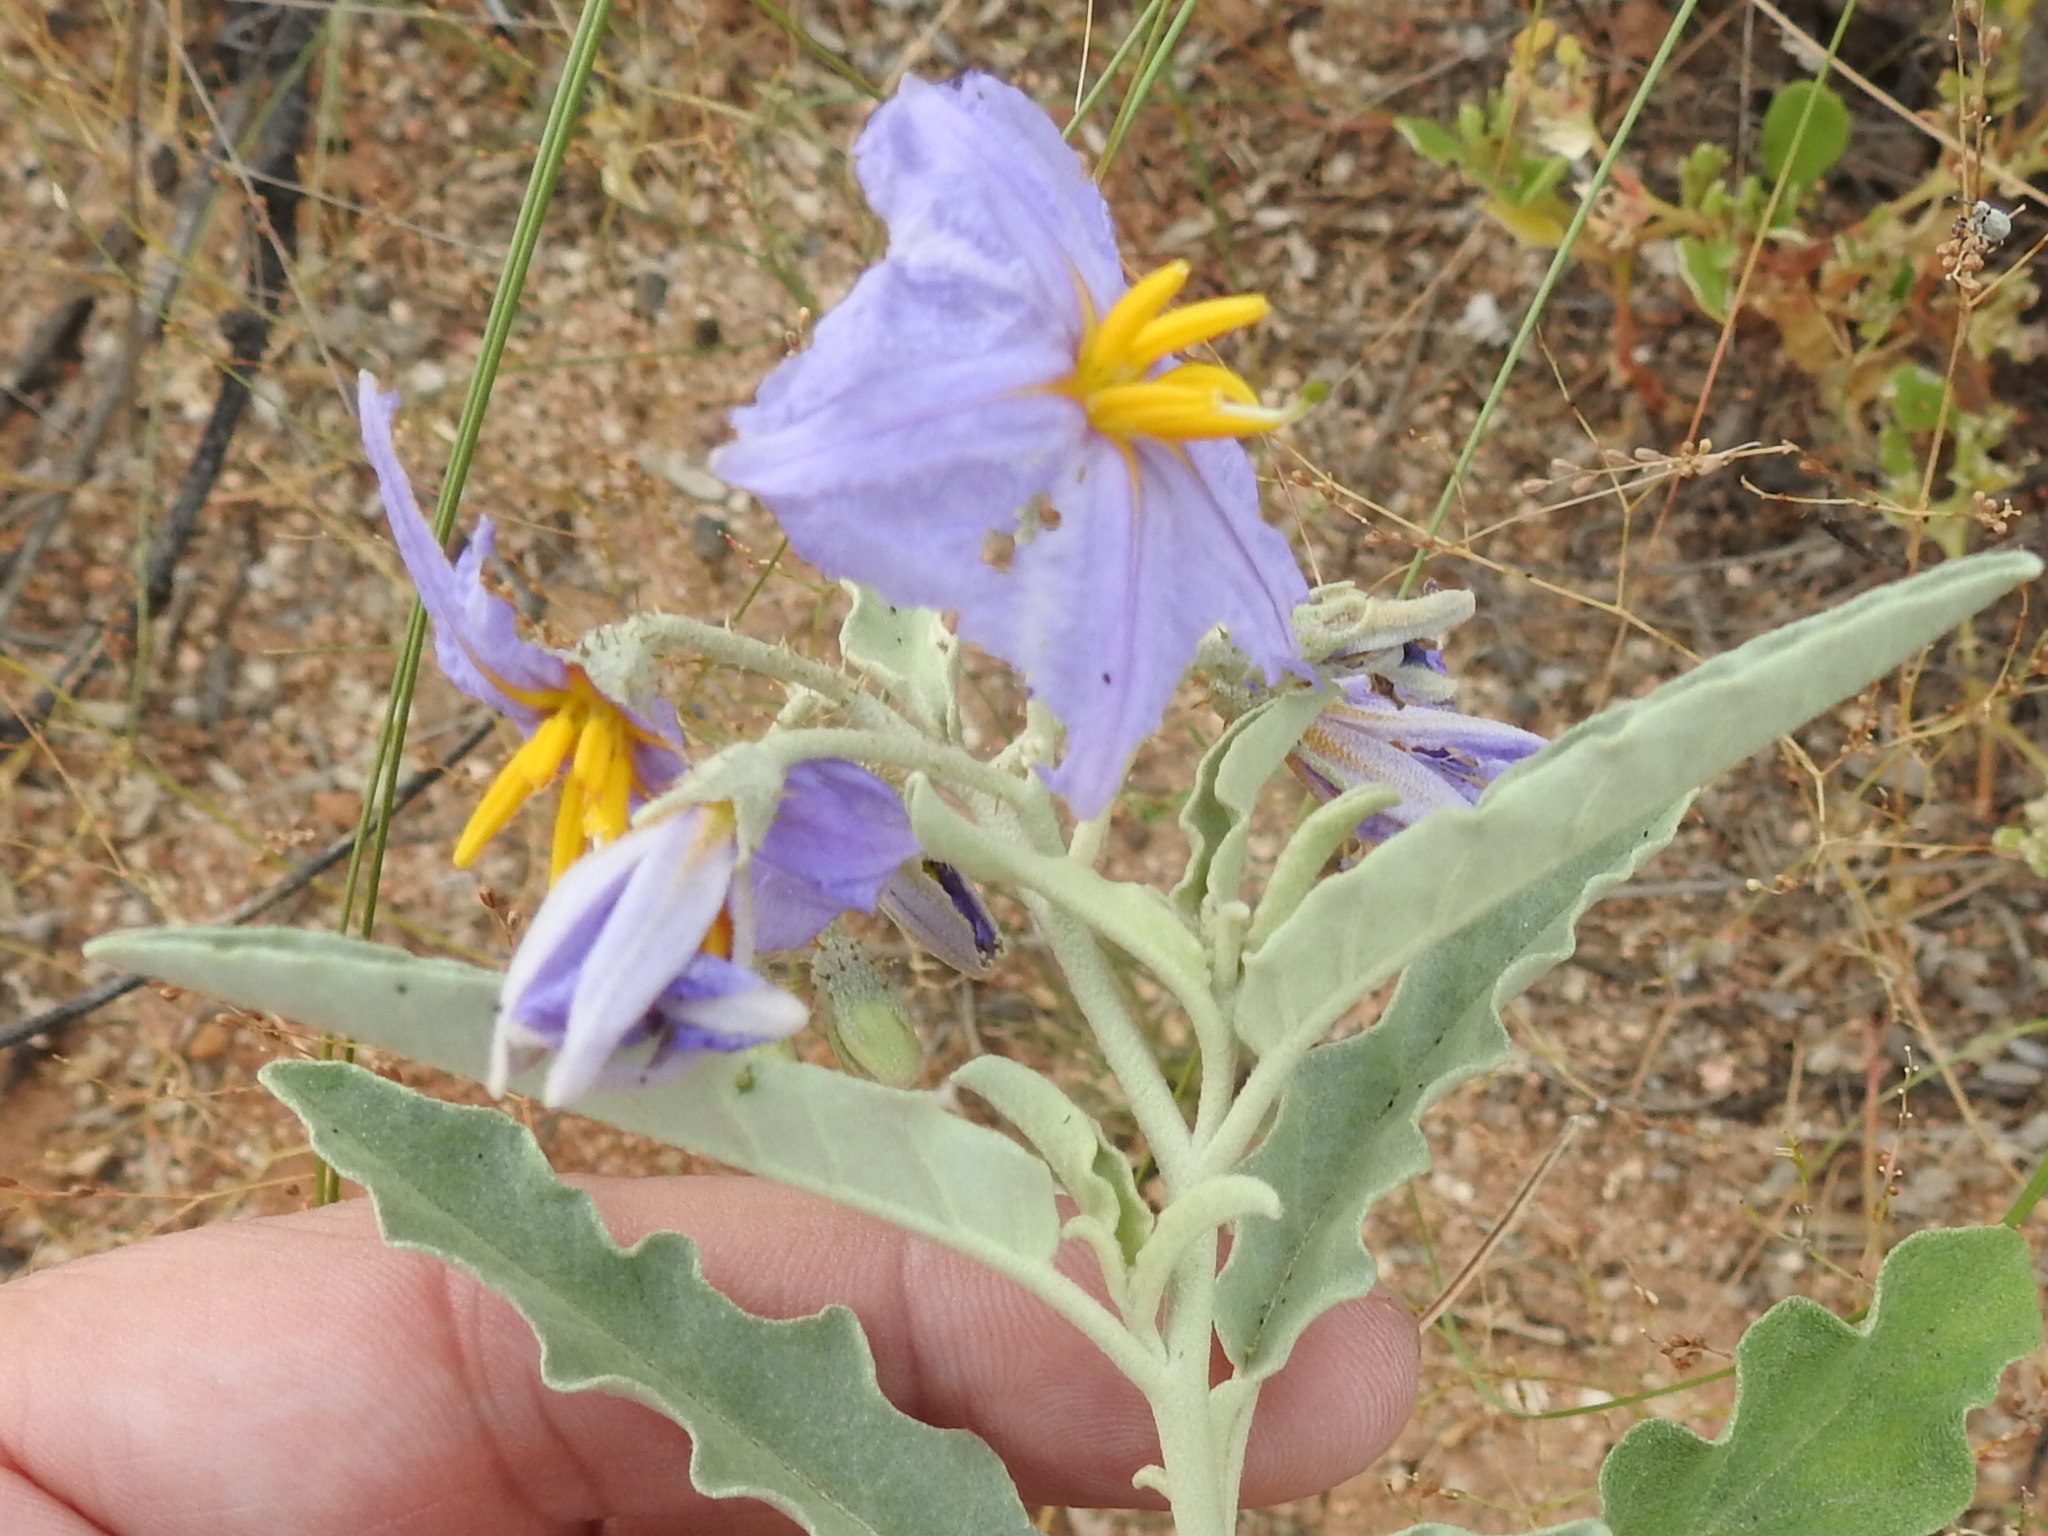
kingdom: Plantae
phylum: Tracheophyta
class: Magnoliopsida
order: Solanales
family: Solanaceae
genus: Solanum
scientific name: Solanum elaeagnifolium
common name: Silverleaf nightshade
